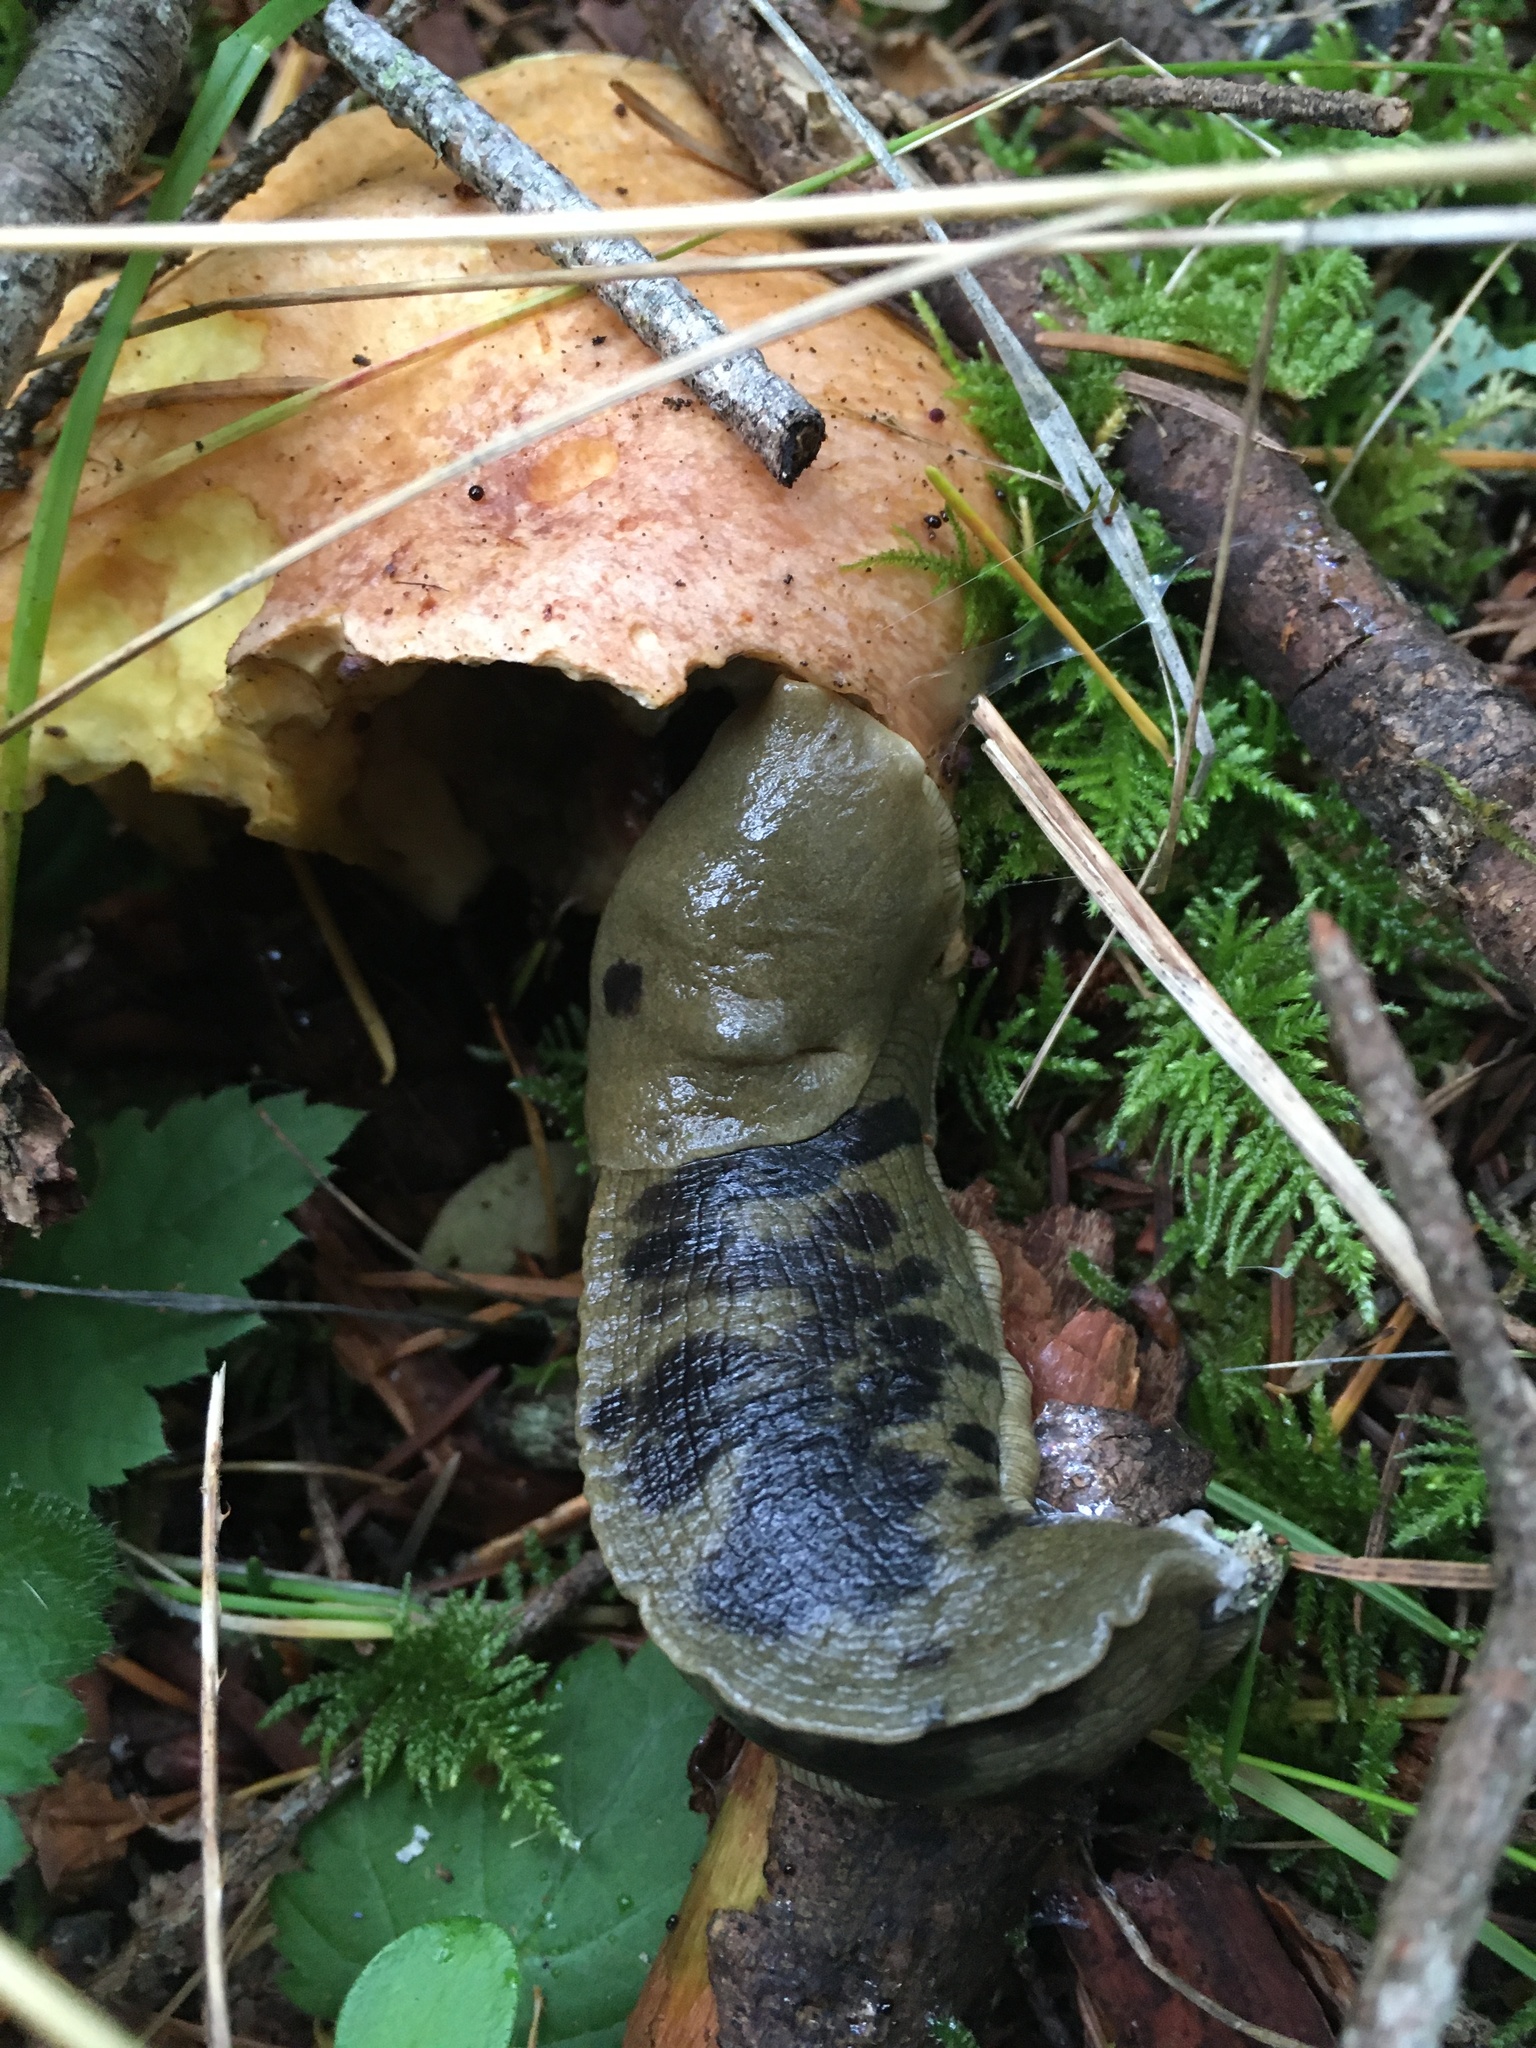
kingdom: Animalia
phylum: Mollusca
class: Gastropoda
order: Stylommatophora
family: Ariolimacidae
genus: Ariolimax
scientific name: Ariolimax columbianus
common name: Pacific banana slug
